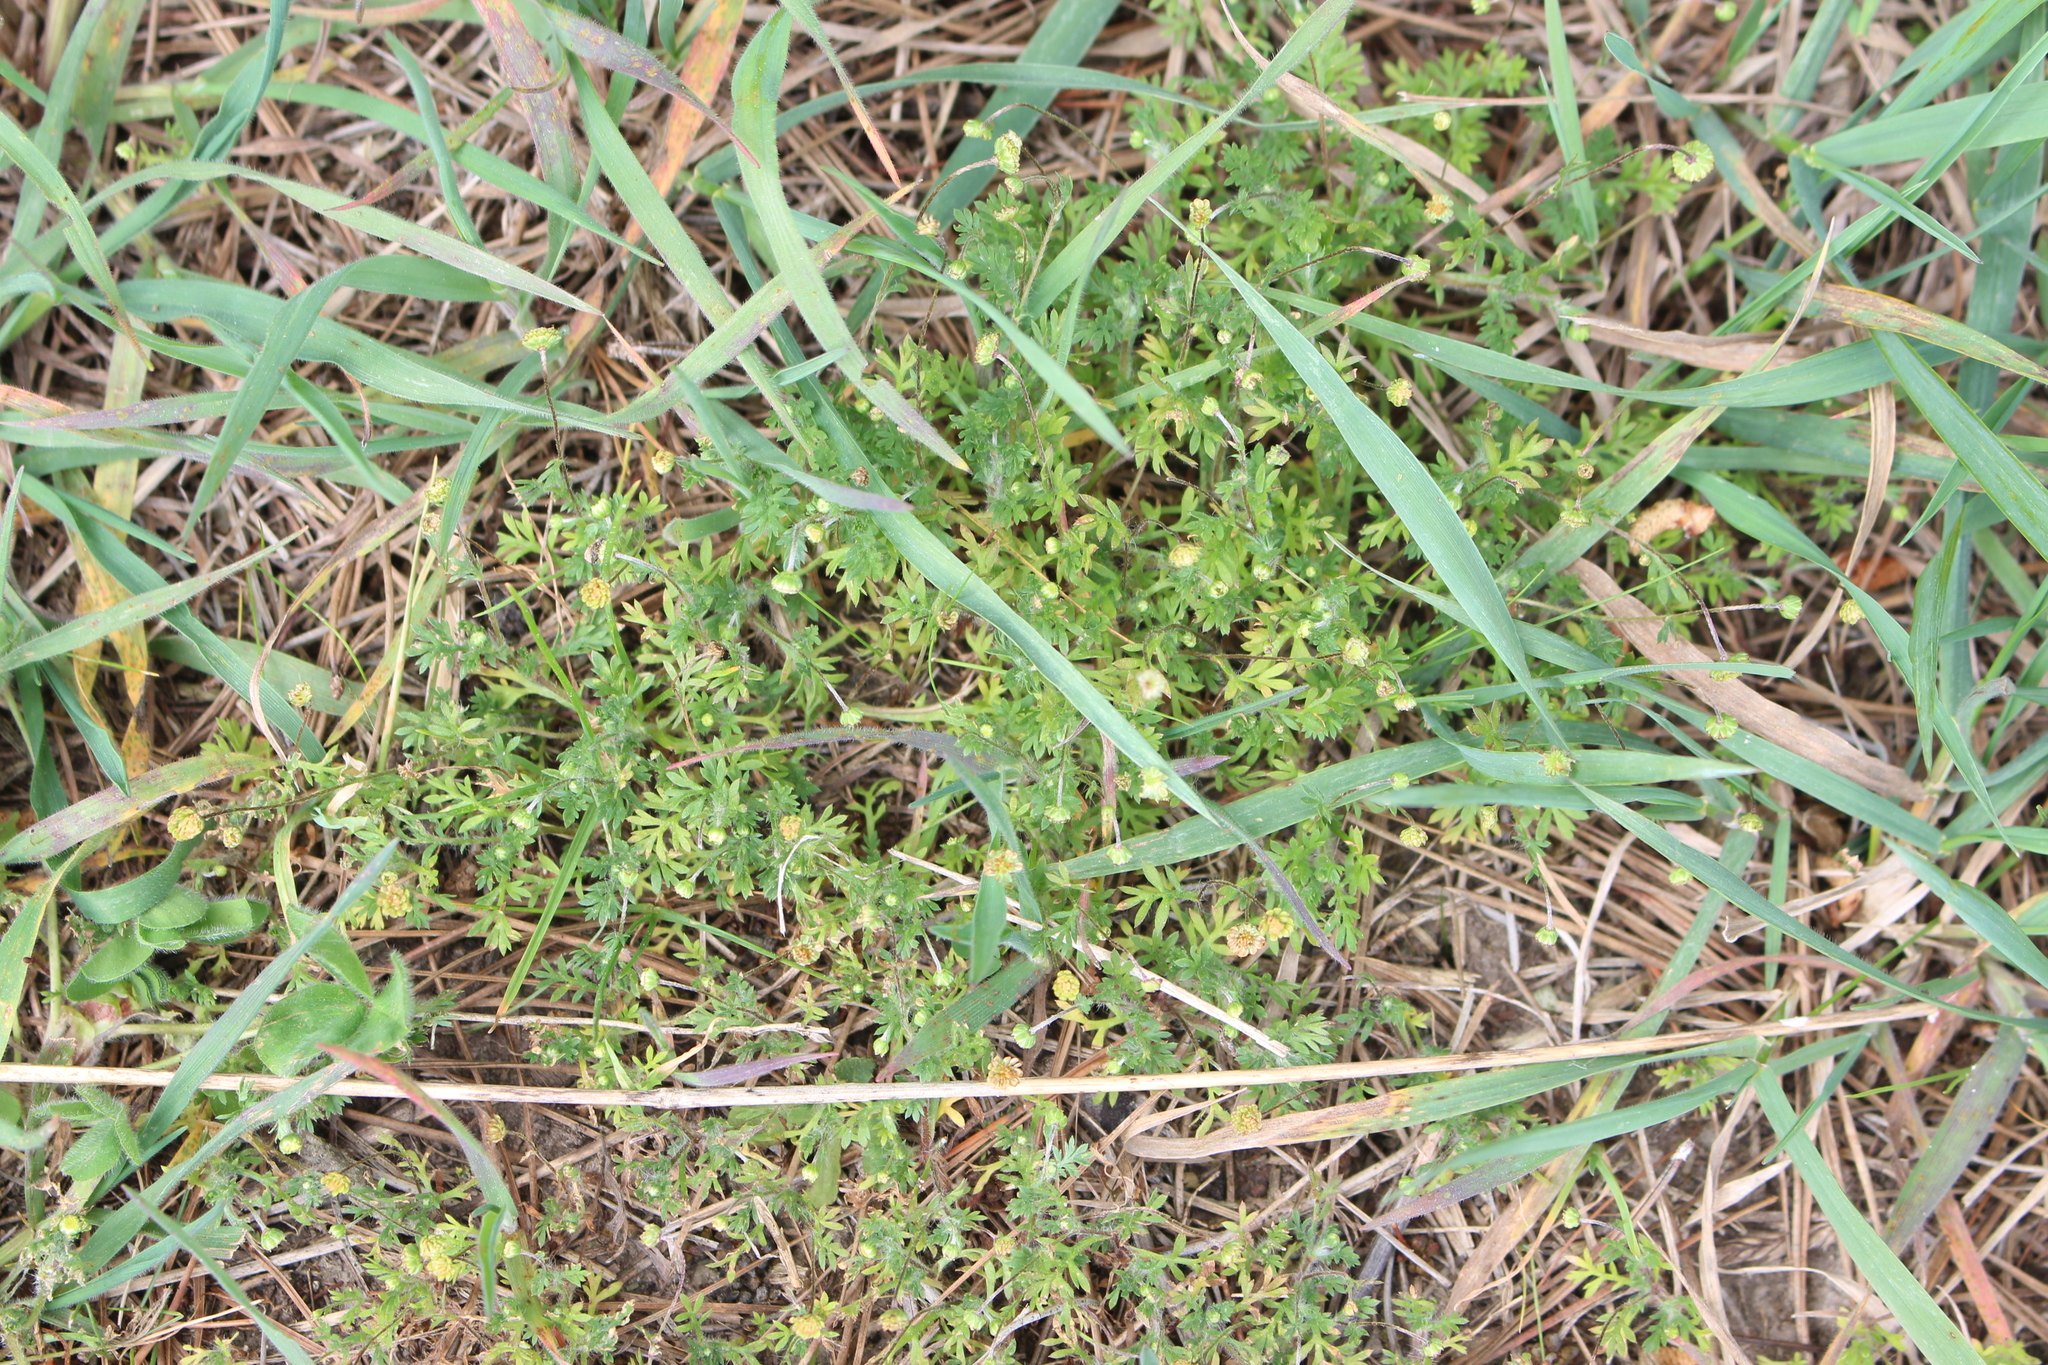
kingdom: Plantae
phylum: Tracheophyta
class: Magnoliopsida
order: Asterales
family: Asteraceae
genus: Cotula
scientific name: Cotula australis
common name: Australian waterbuttons
